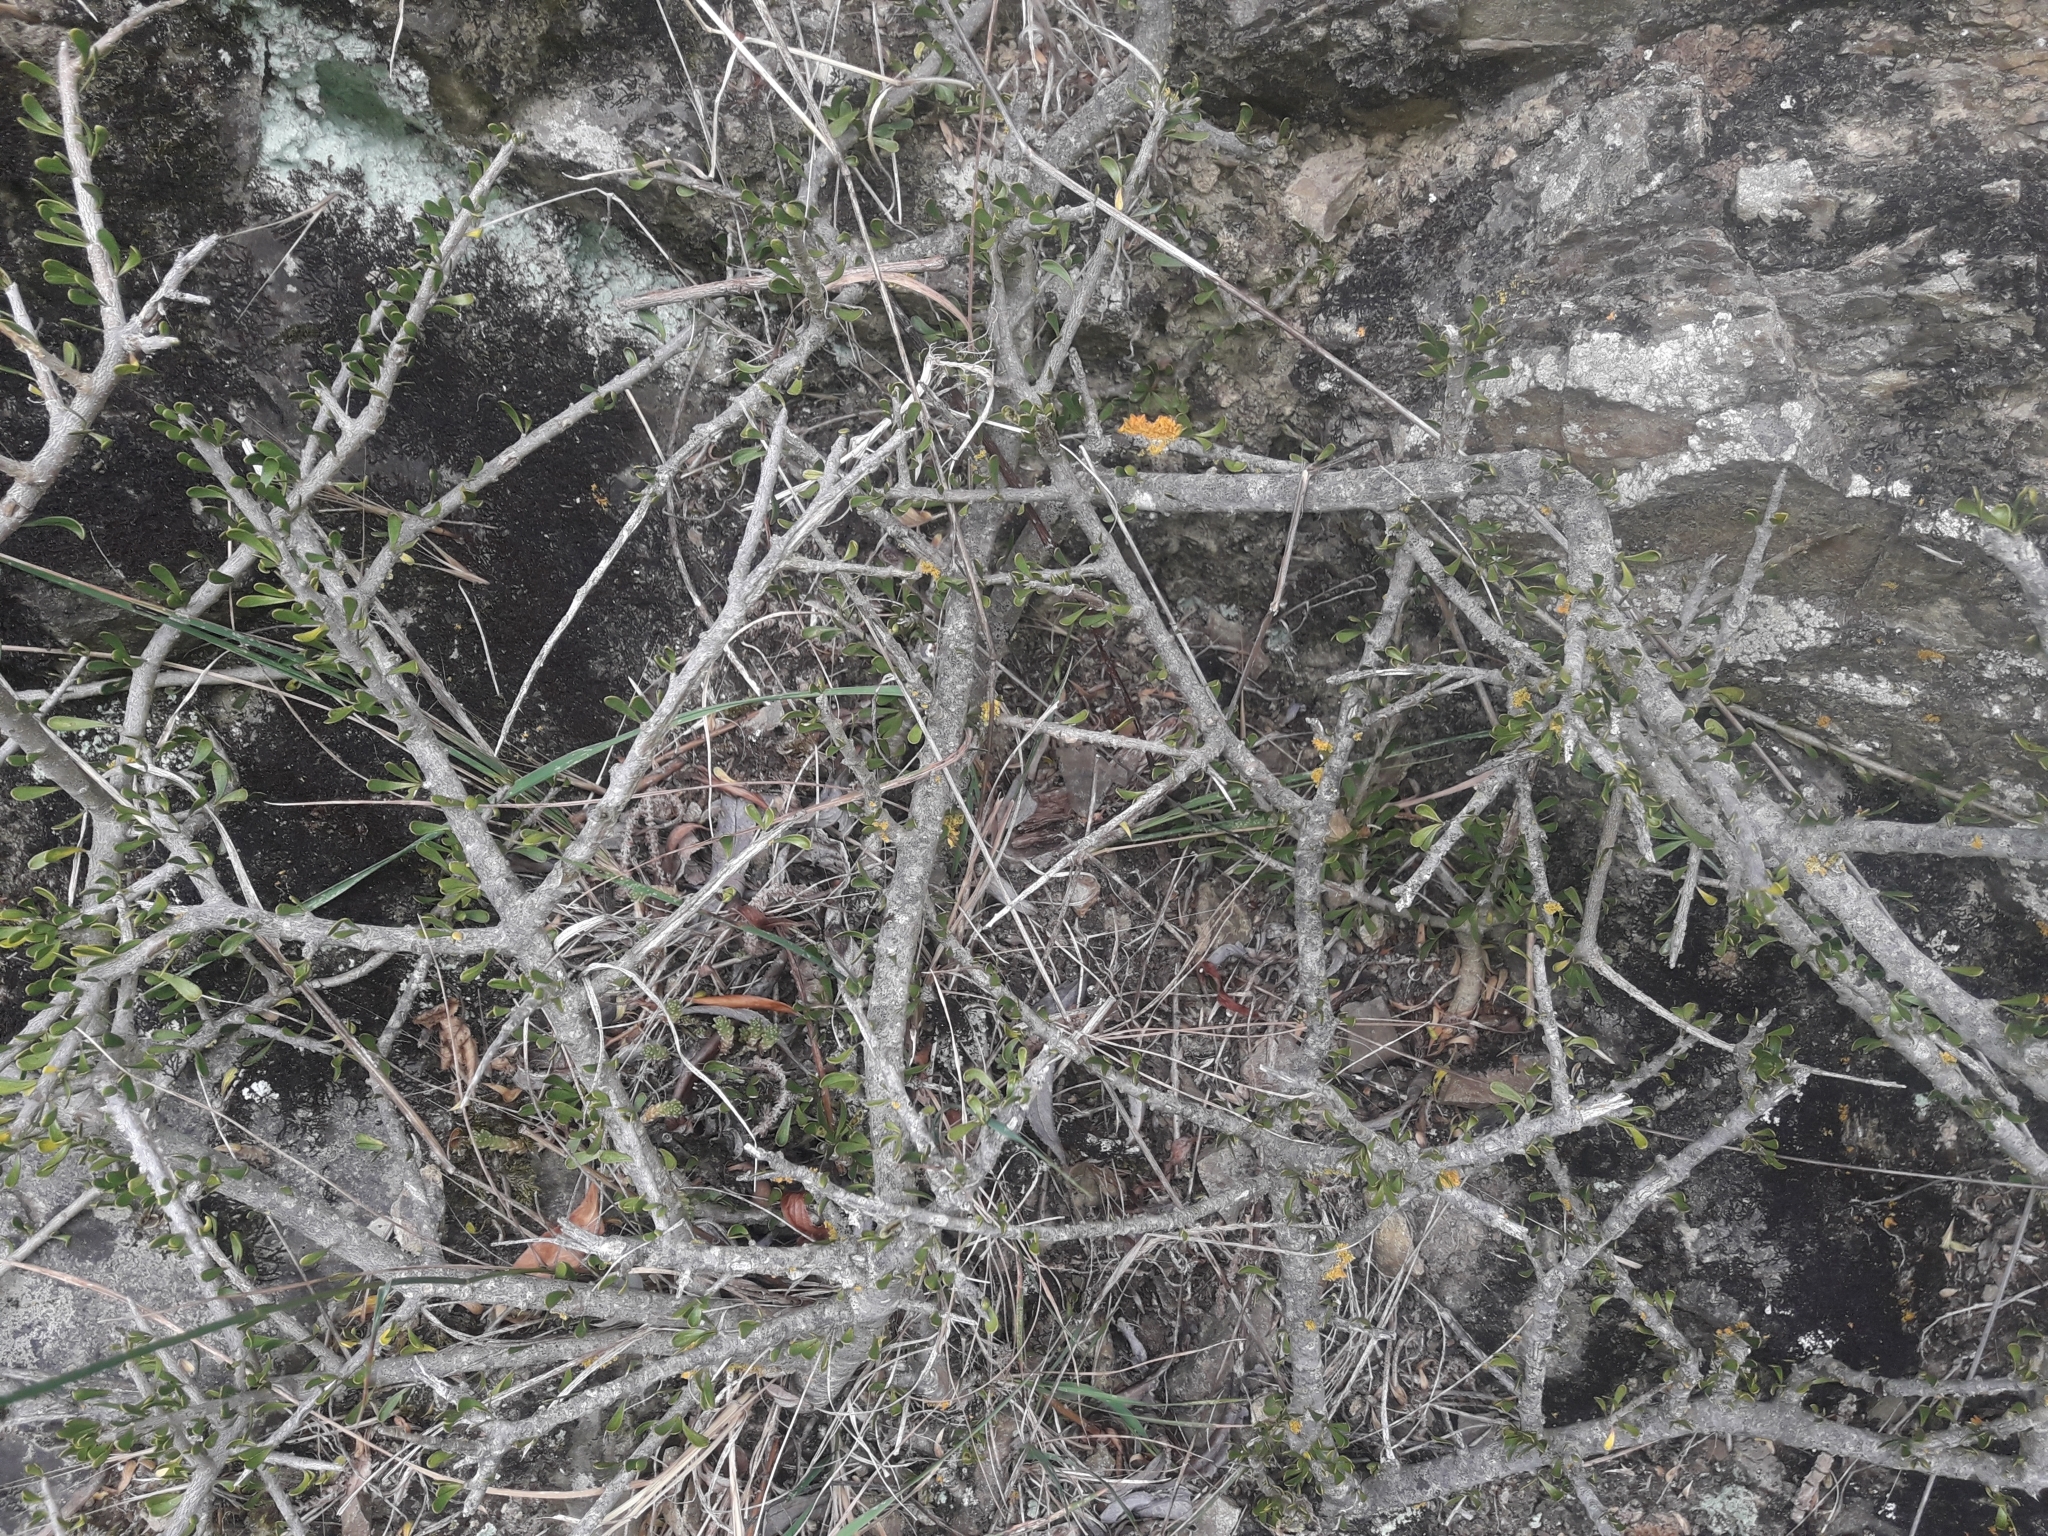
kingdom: Plantae
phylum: Tracheophyta
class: Magnoliopsida
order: Malpighiales
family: Violaceae
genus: Melicytus
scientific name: Melicytus alpinus
